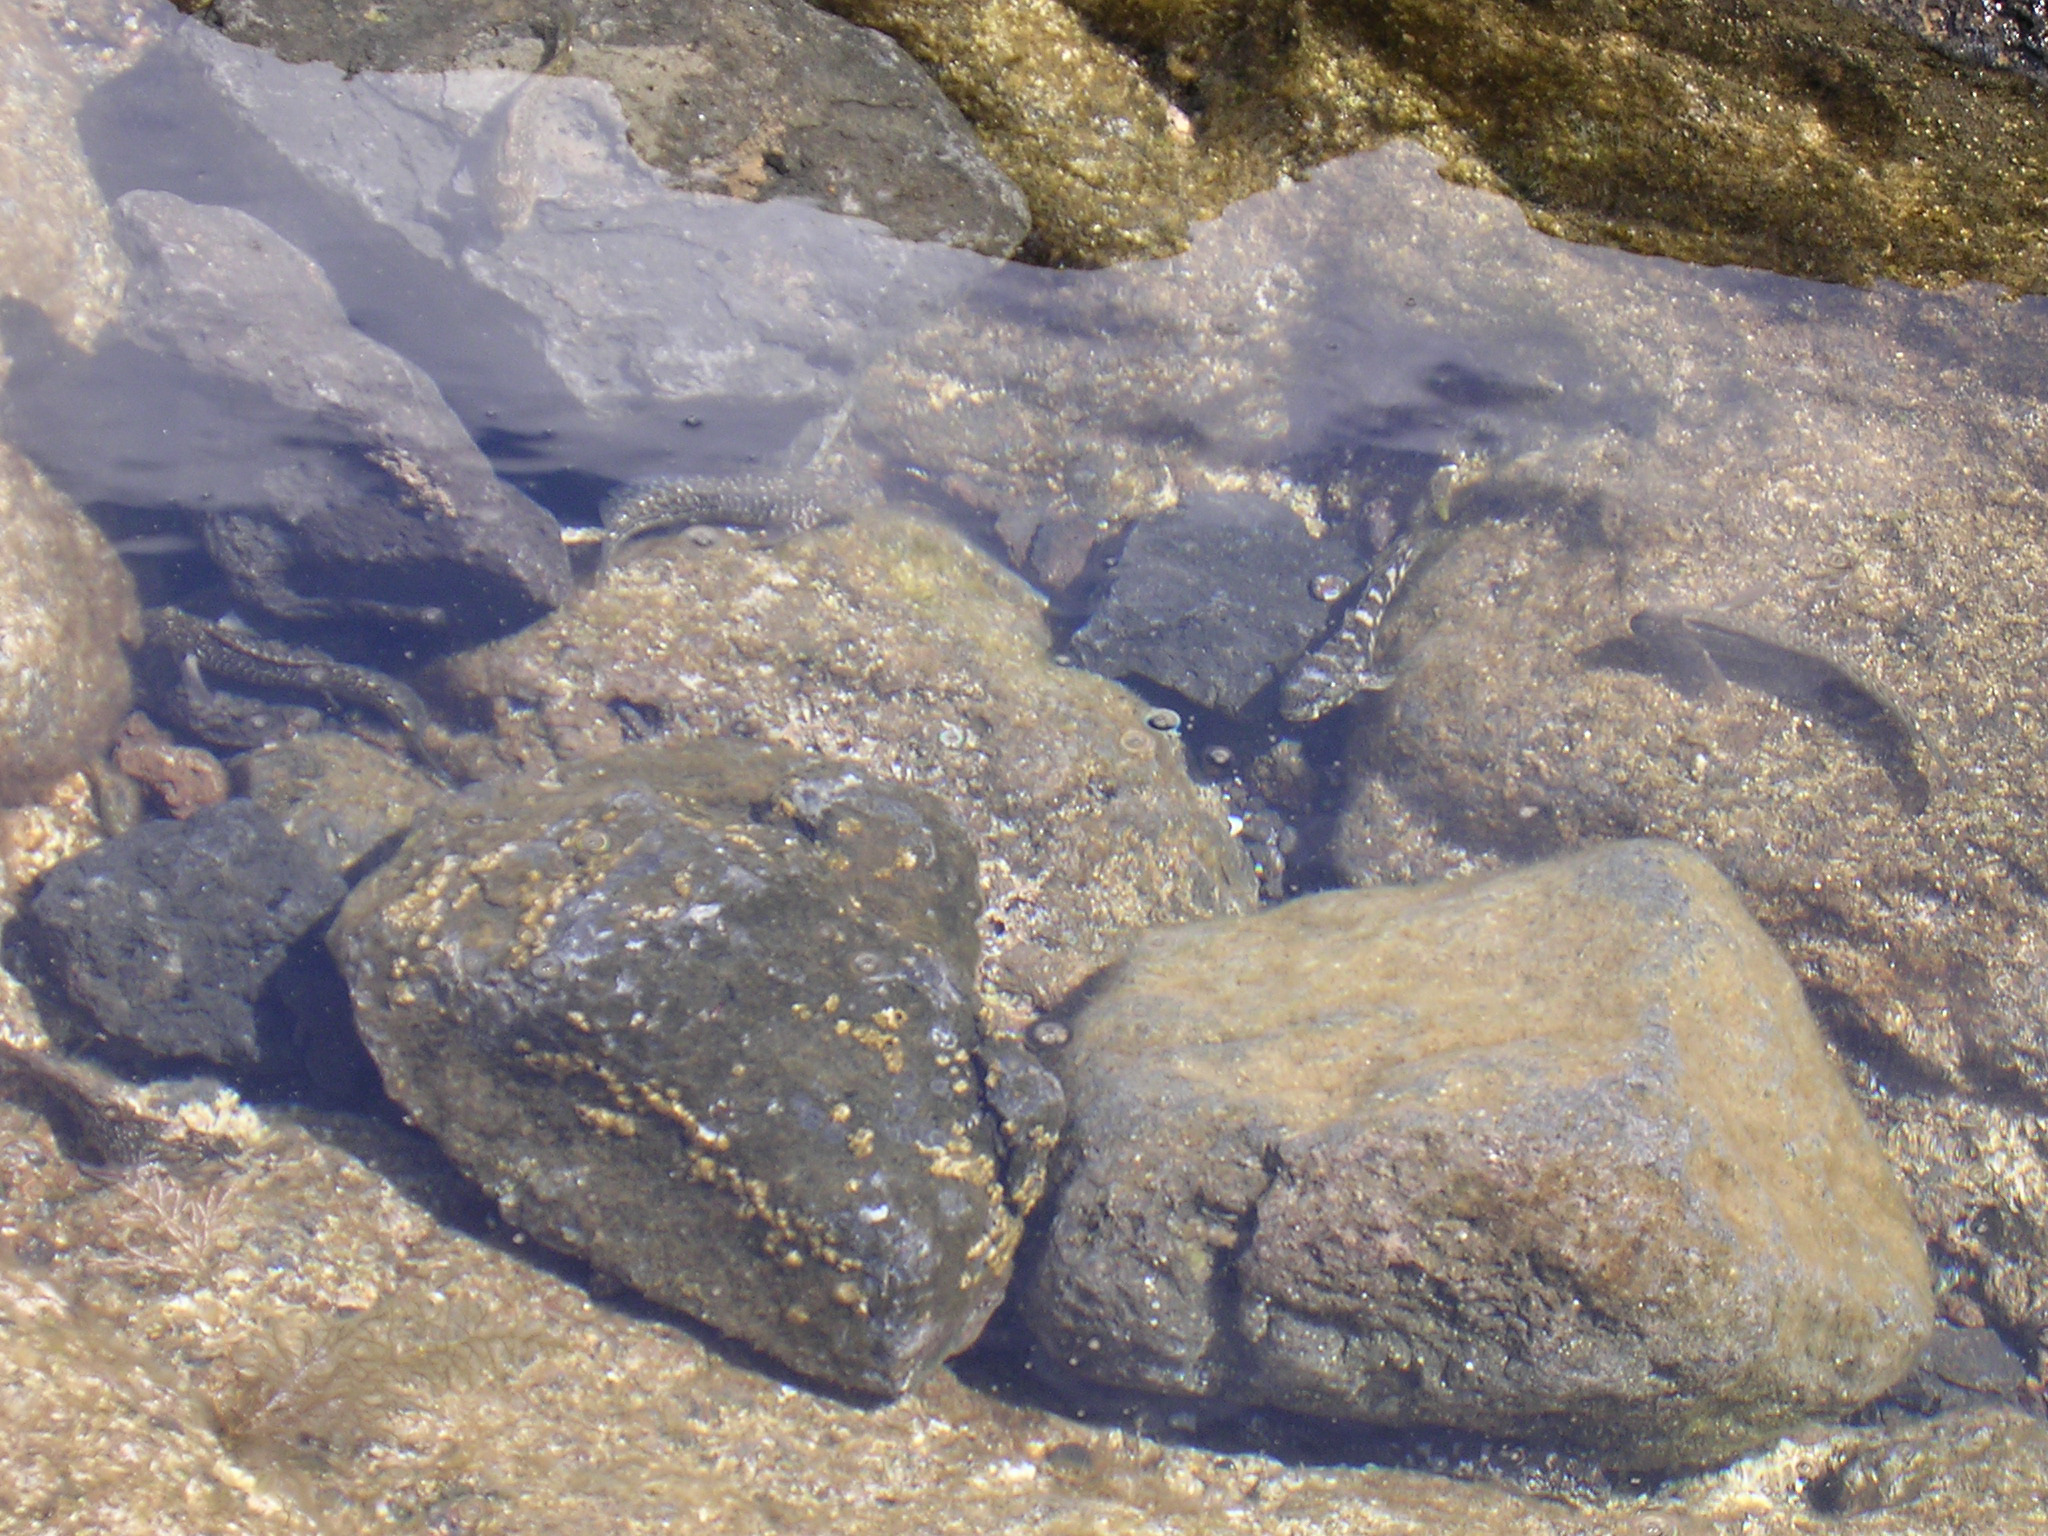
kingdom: Animalia
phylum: Chordata
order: Perciformes
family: Gobiidae
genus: Mauligobius
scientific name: Mauligobius maderensis
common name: Rock goby
